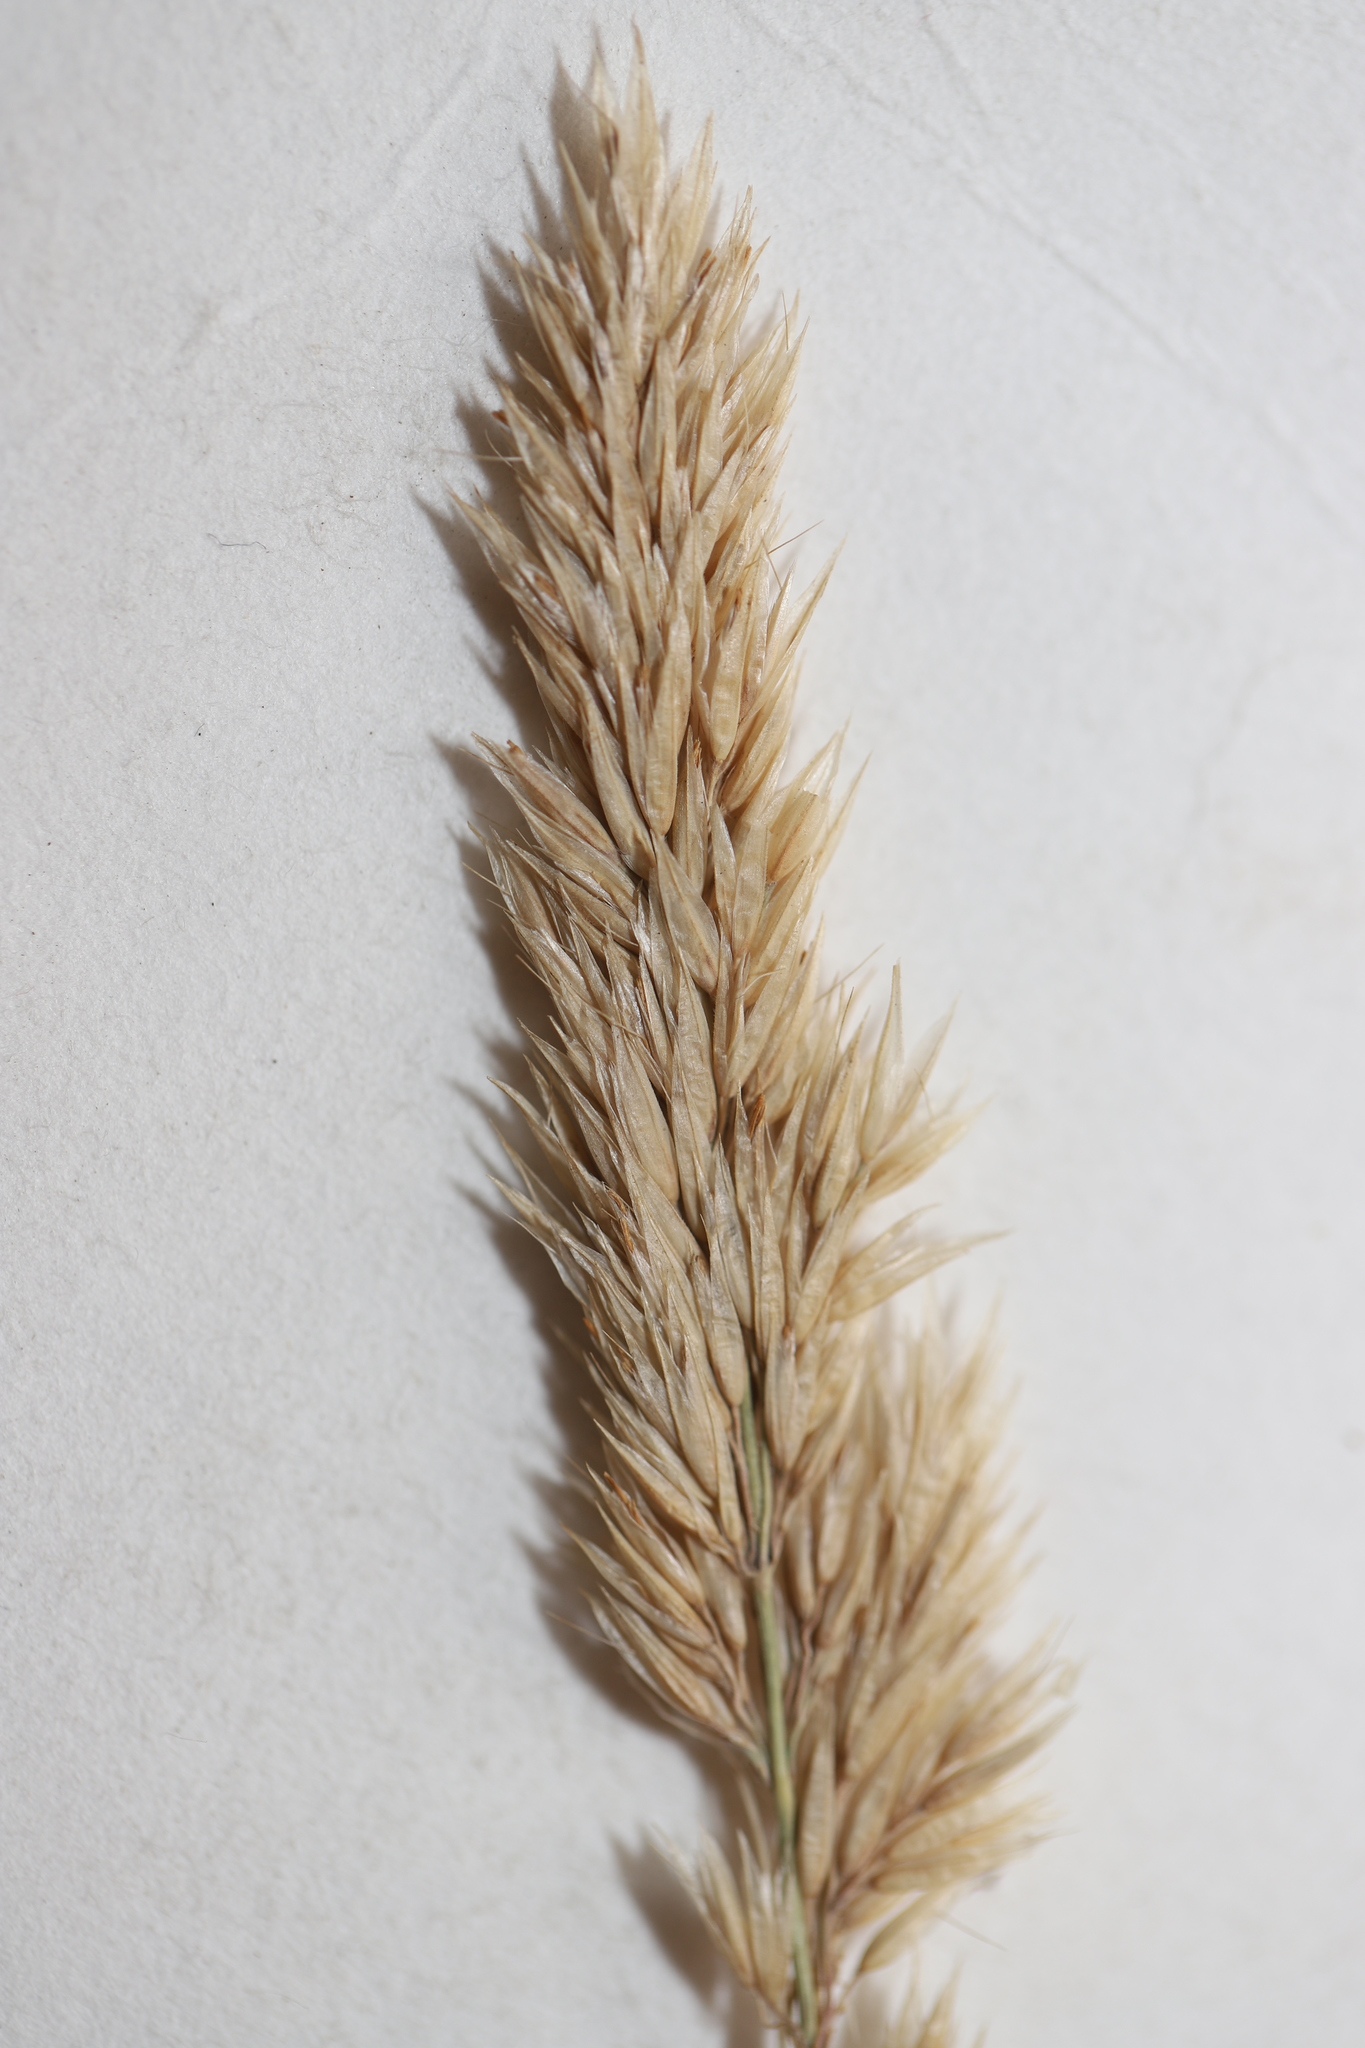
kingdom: Plantae
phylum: Tracheophyta
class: Liliopsida
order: Poales
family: Poaceae
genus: Calamagrostis
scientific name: Calamagrostis purpurascens
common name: Purple reedgrass
